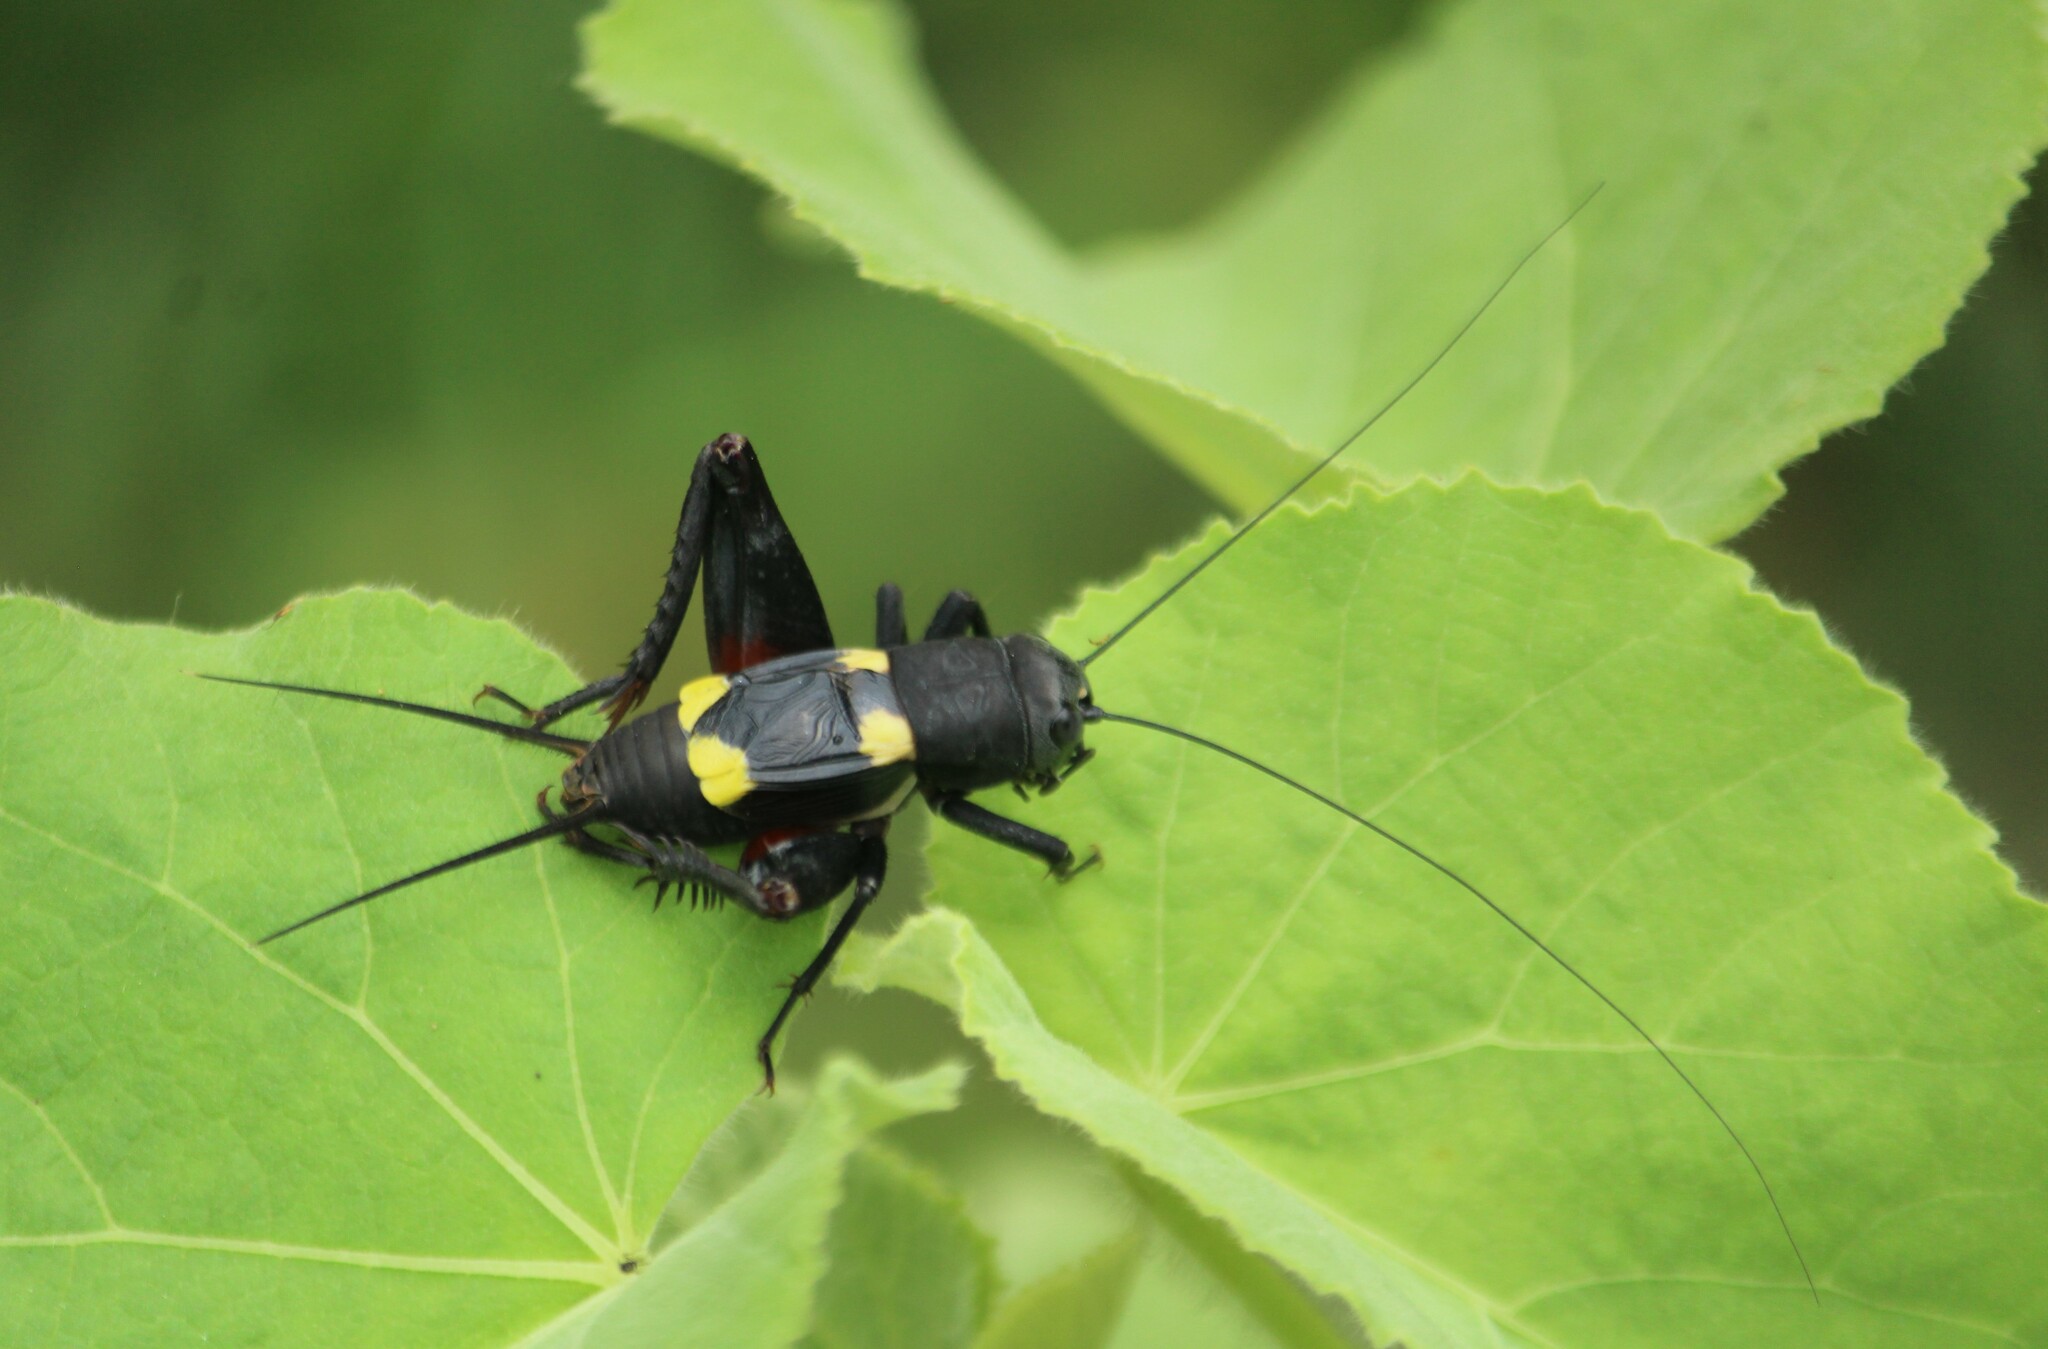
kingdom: Animalia
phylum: Arthropoda
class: Insecta
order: Orthoptera
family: Gryllidae
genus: Gryllus
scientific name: Gryllus quadrimaculatus
